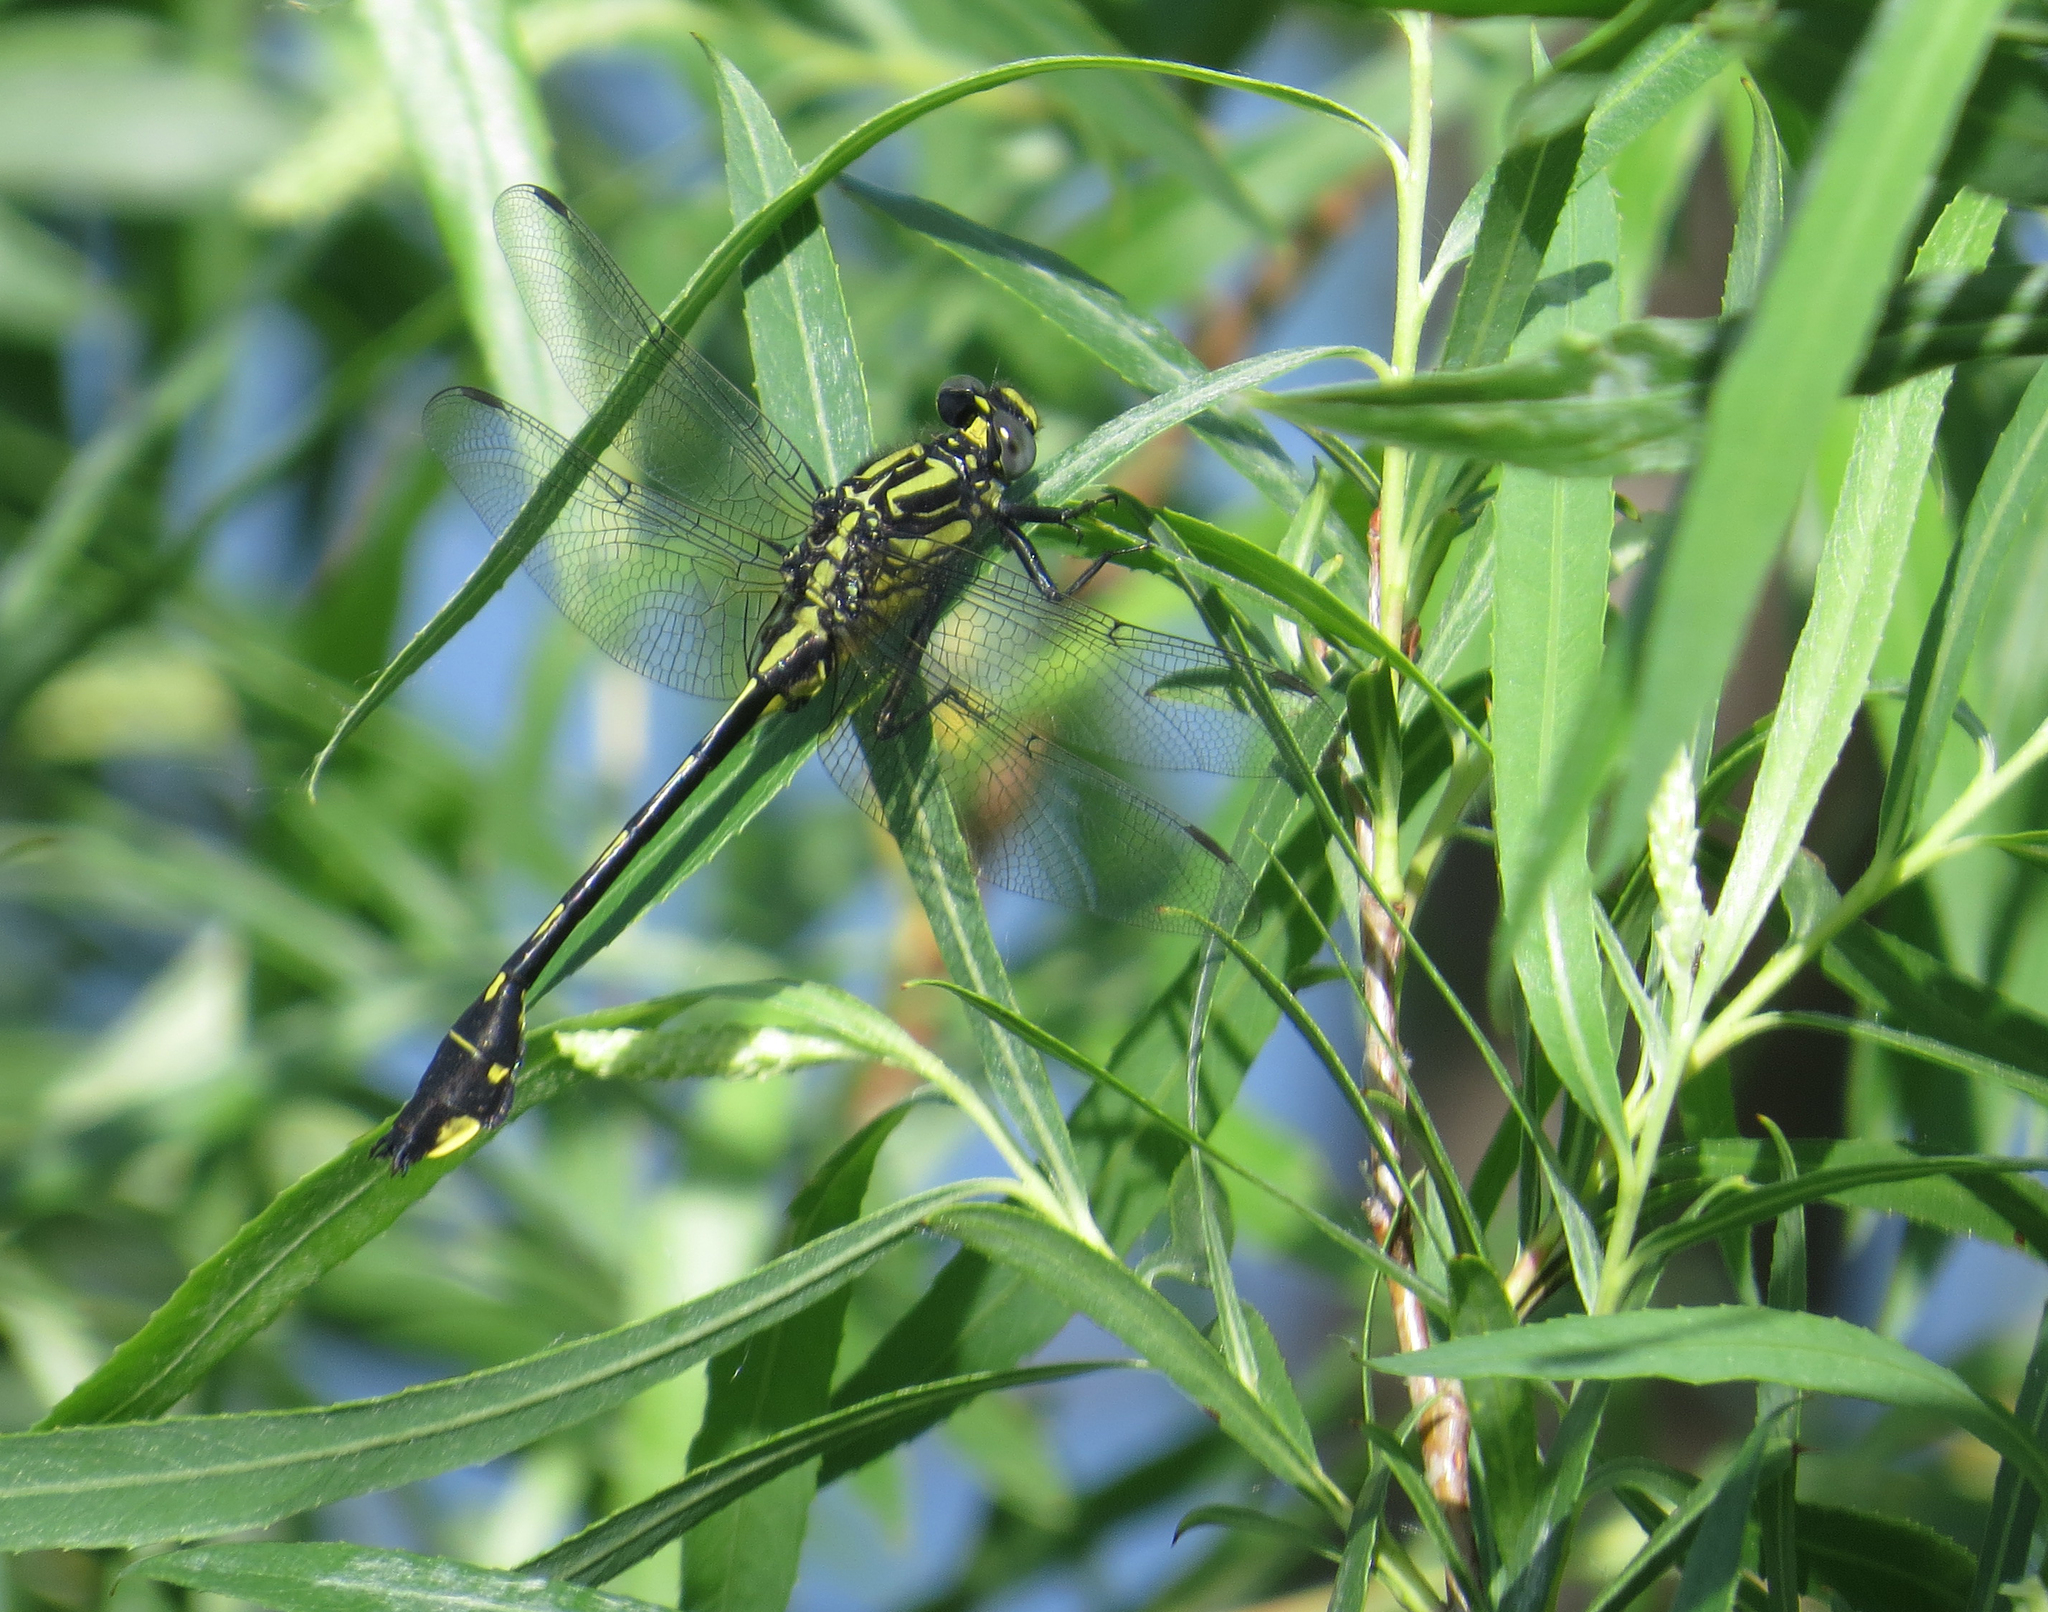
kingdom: Animalia
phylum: Arthropoda
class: Insecta
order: Odonata
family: Gomphidae
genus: Gomphurus
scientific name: Gomphurus vastus
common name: Cobra clubtail
